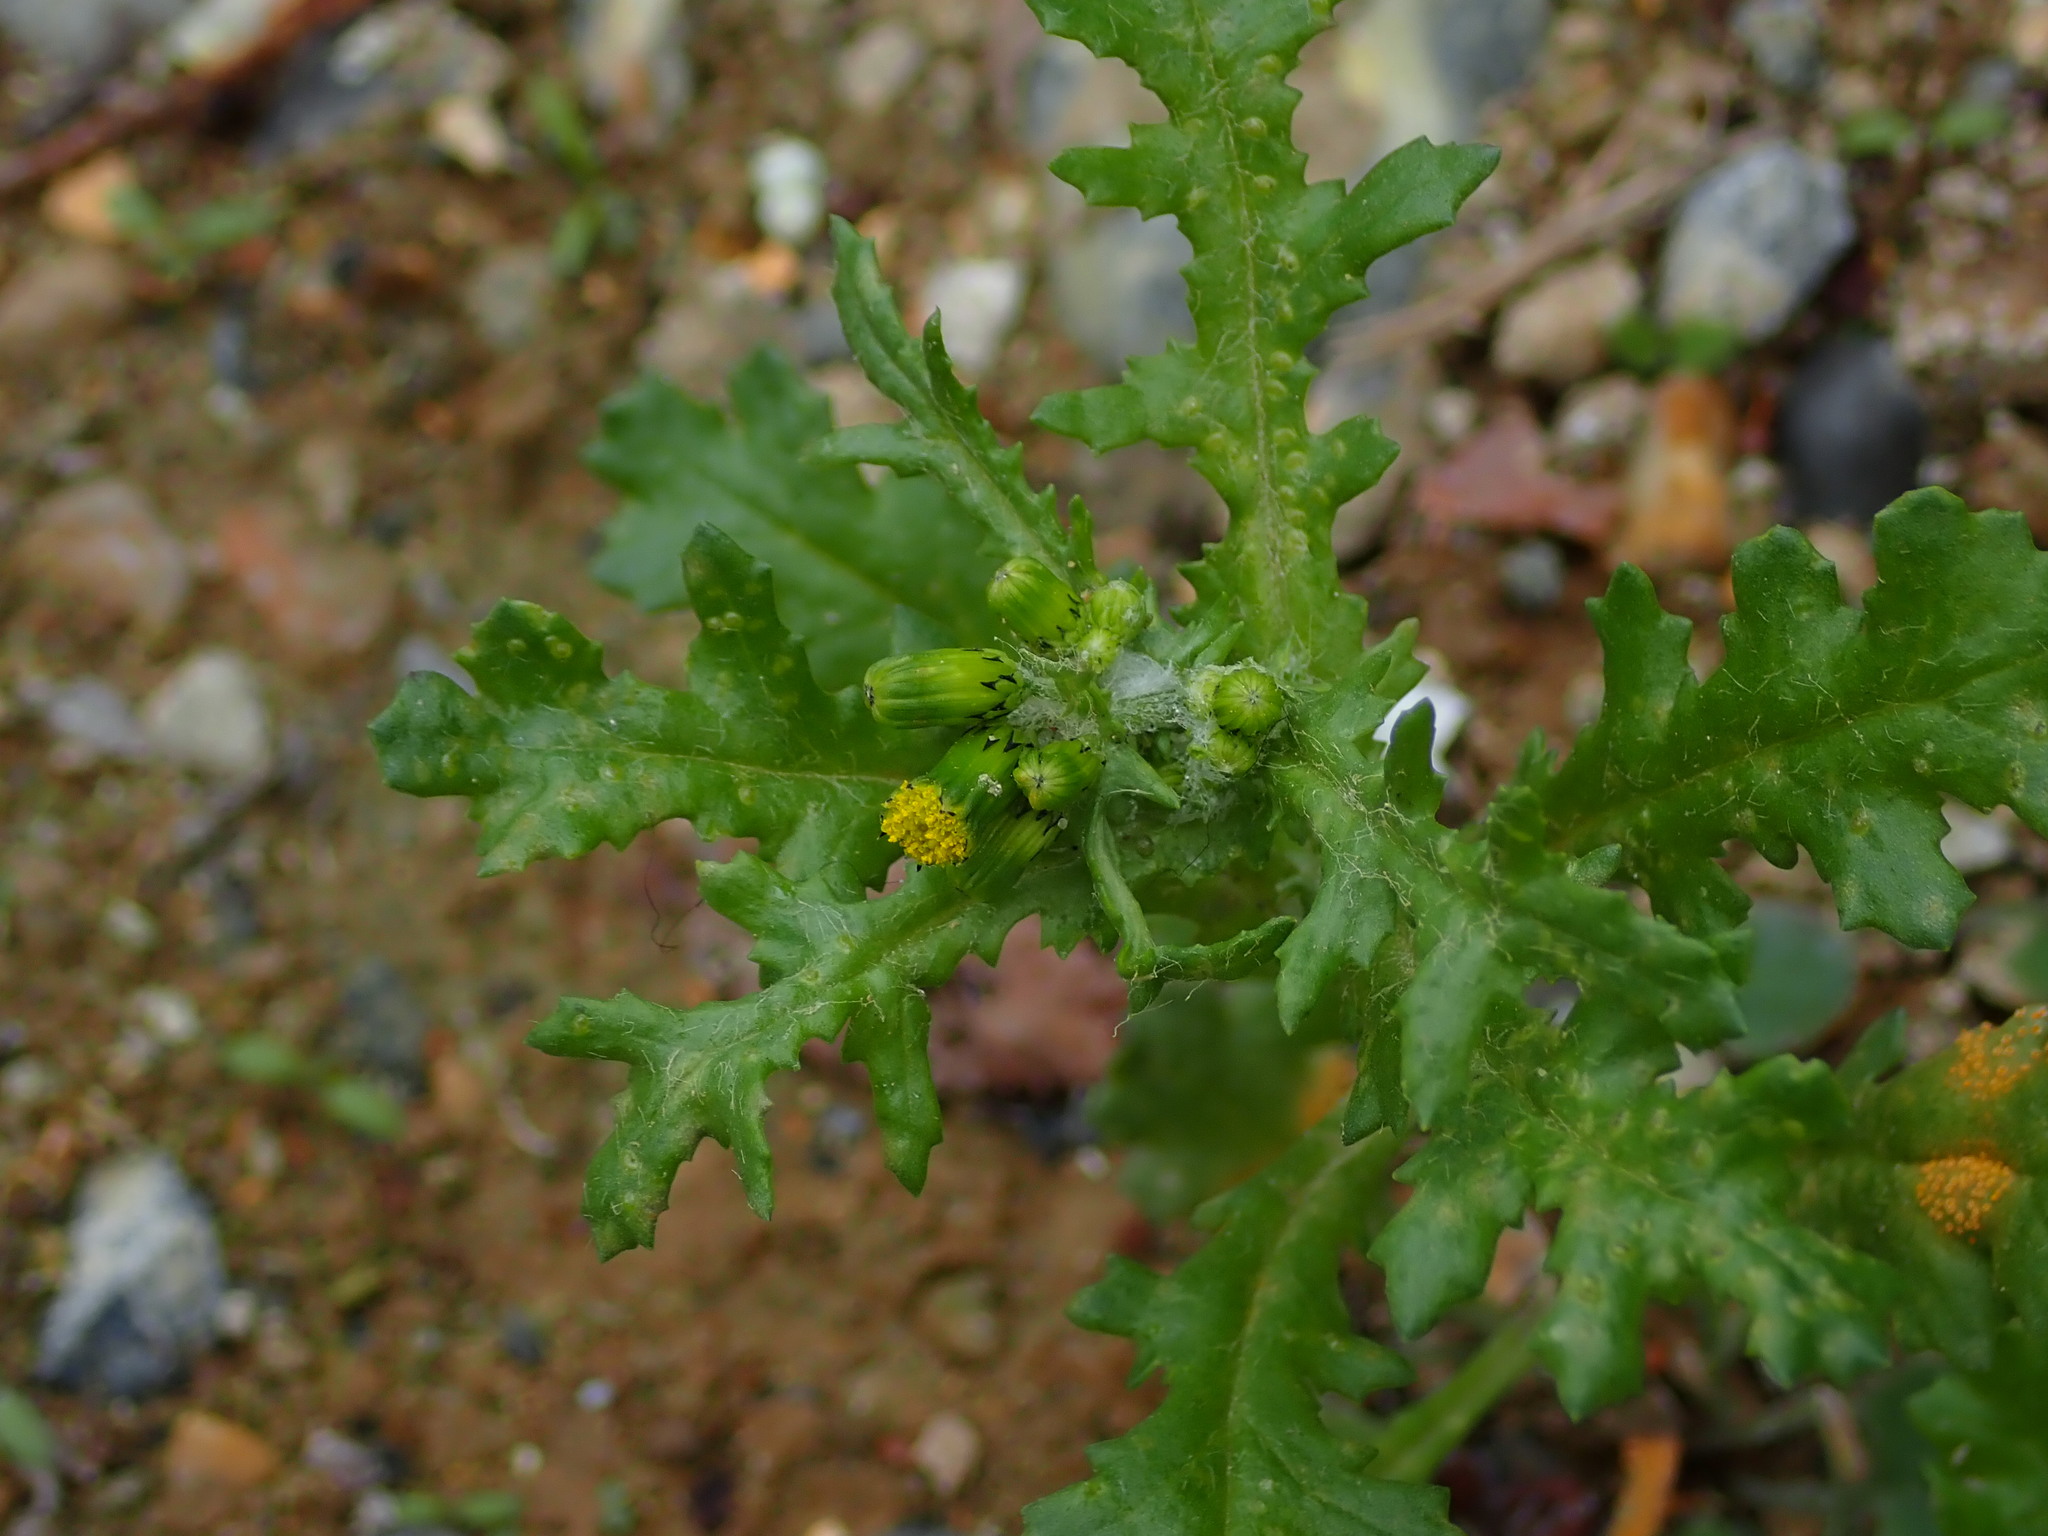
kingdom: Plantae
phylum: Tracheophyta
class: Magnoliopsida
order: Asterales
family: Asteraceae
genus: Senecio
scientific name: Senecio vulgaris
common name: Old-man-in-the-spring
